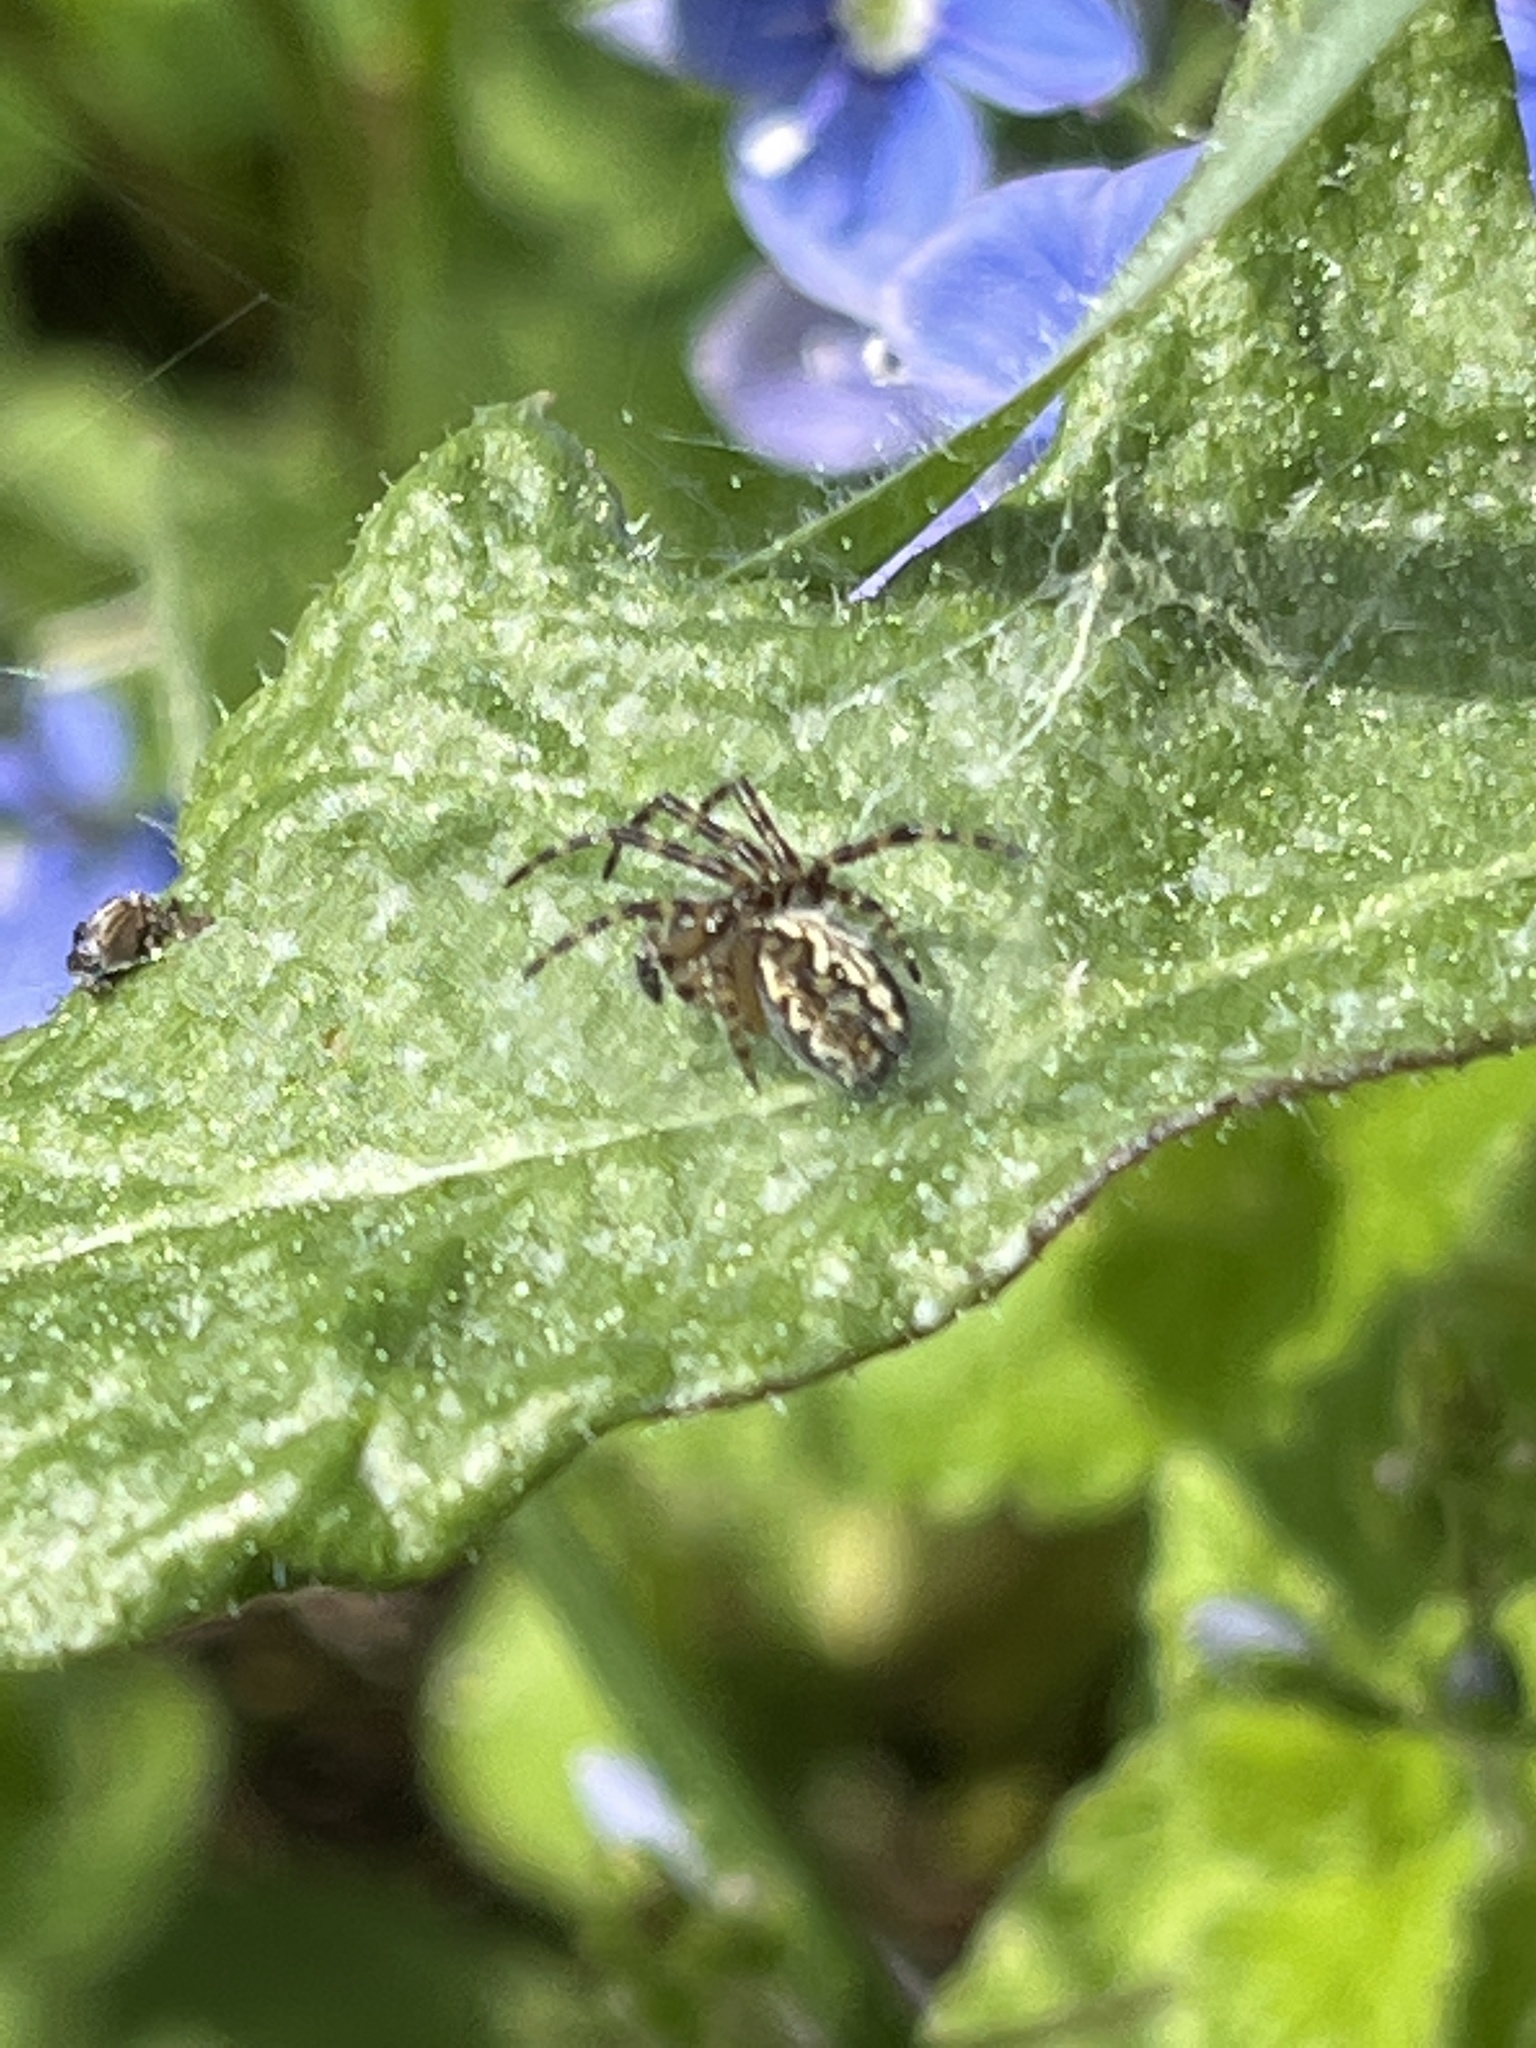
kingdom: Animalia
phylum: Arthropoda
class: Arachnida
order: Araneae
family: Araneidae
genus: Aculepeira
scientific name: Aculepeira ceropegia
